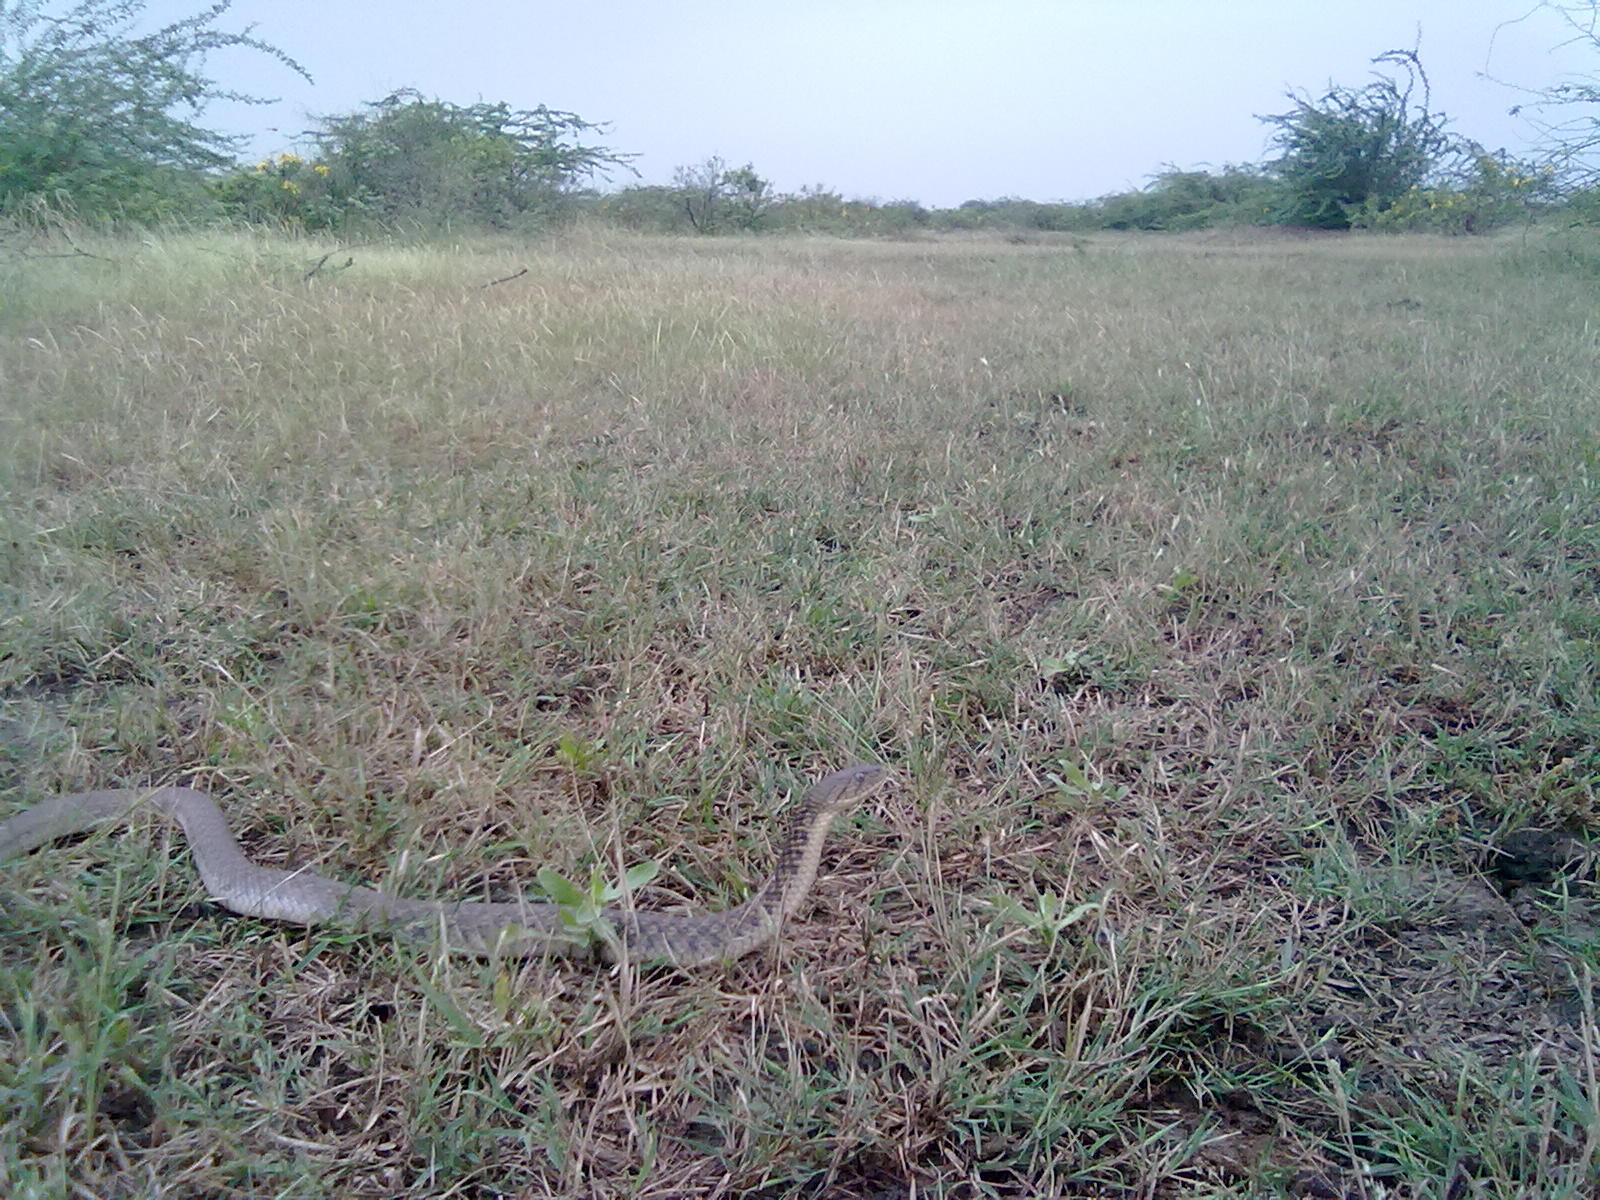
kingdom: Animalia
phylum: Chordata
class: Squamata
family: Colubridae
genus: Fowlea
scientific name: Fowlea piscator
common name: Asiatic water snake
